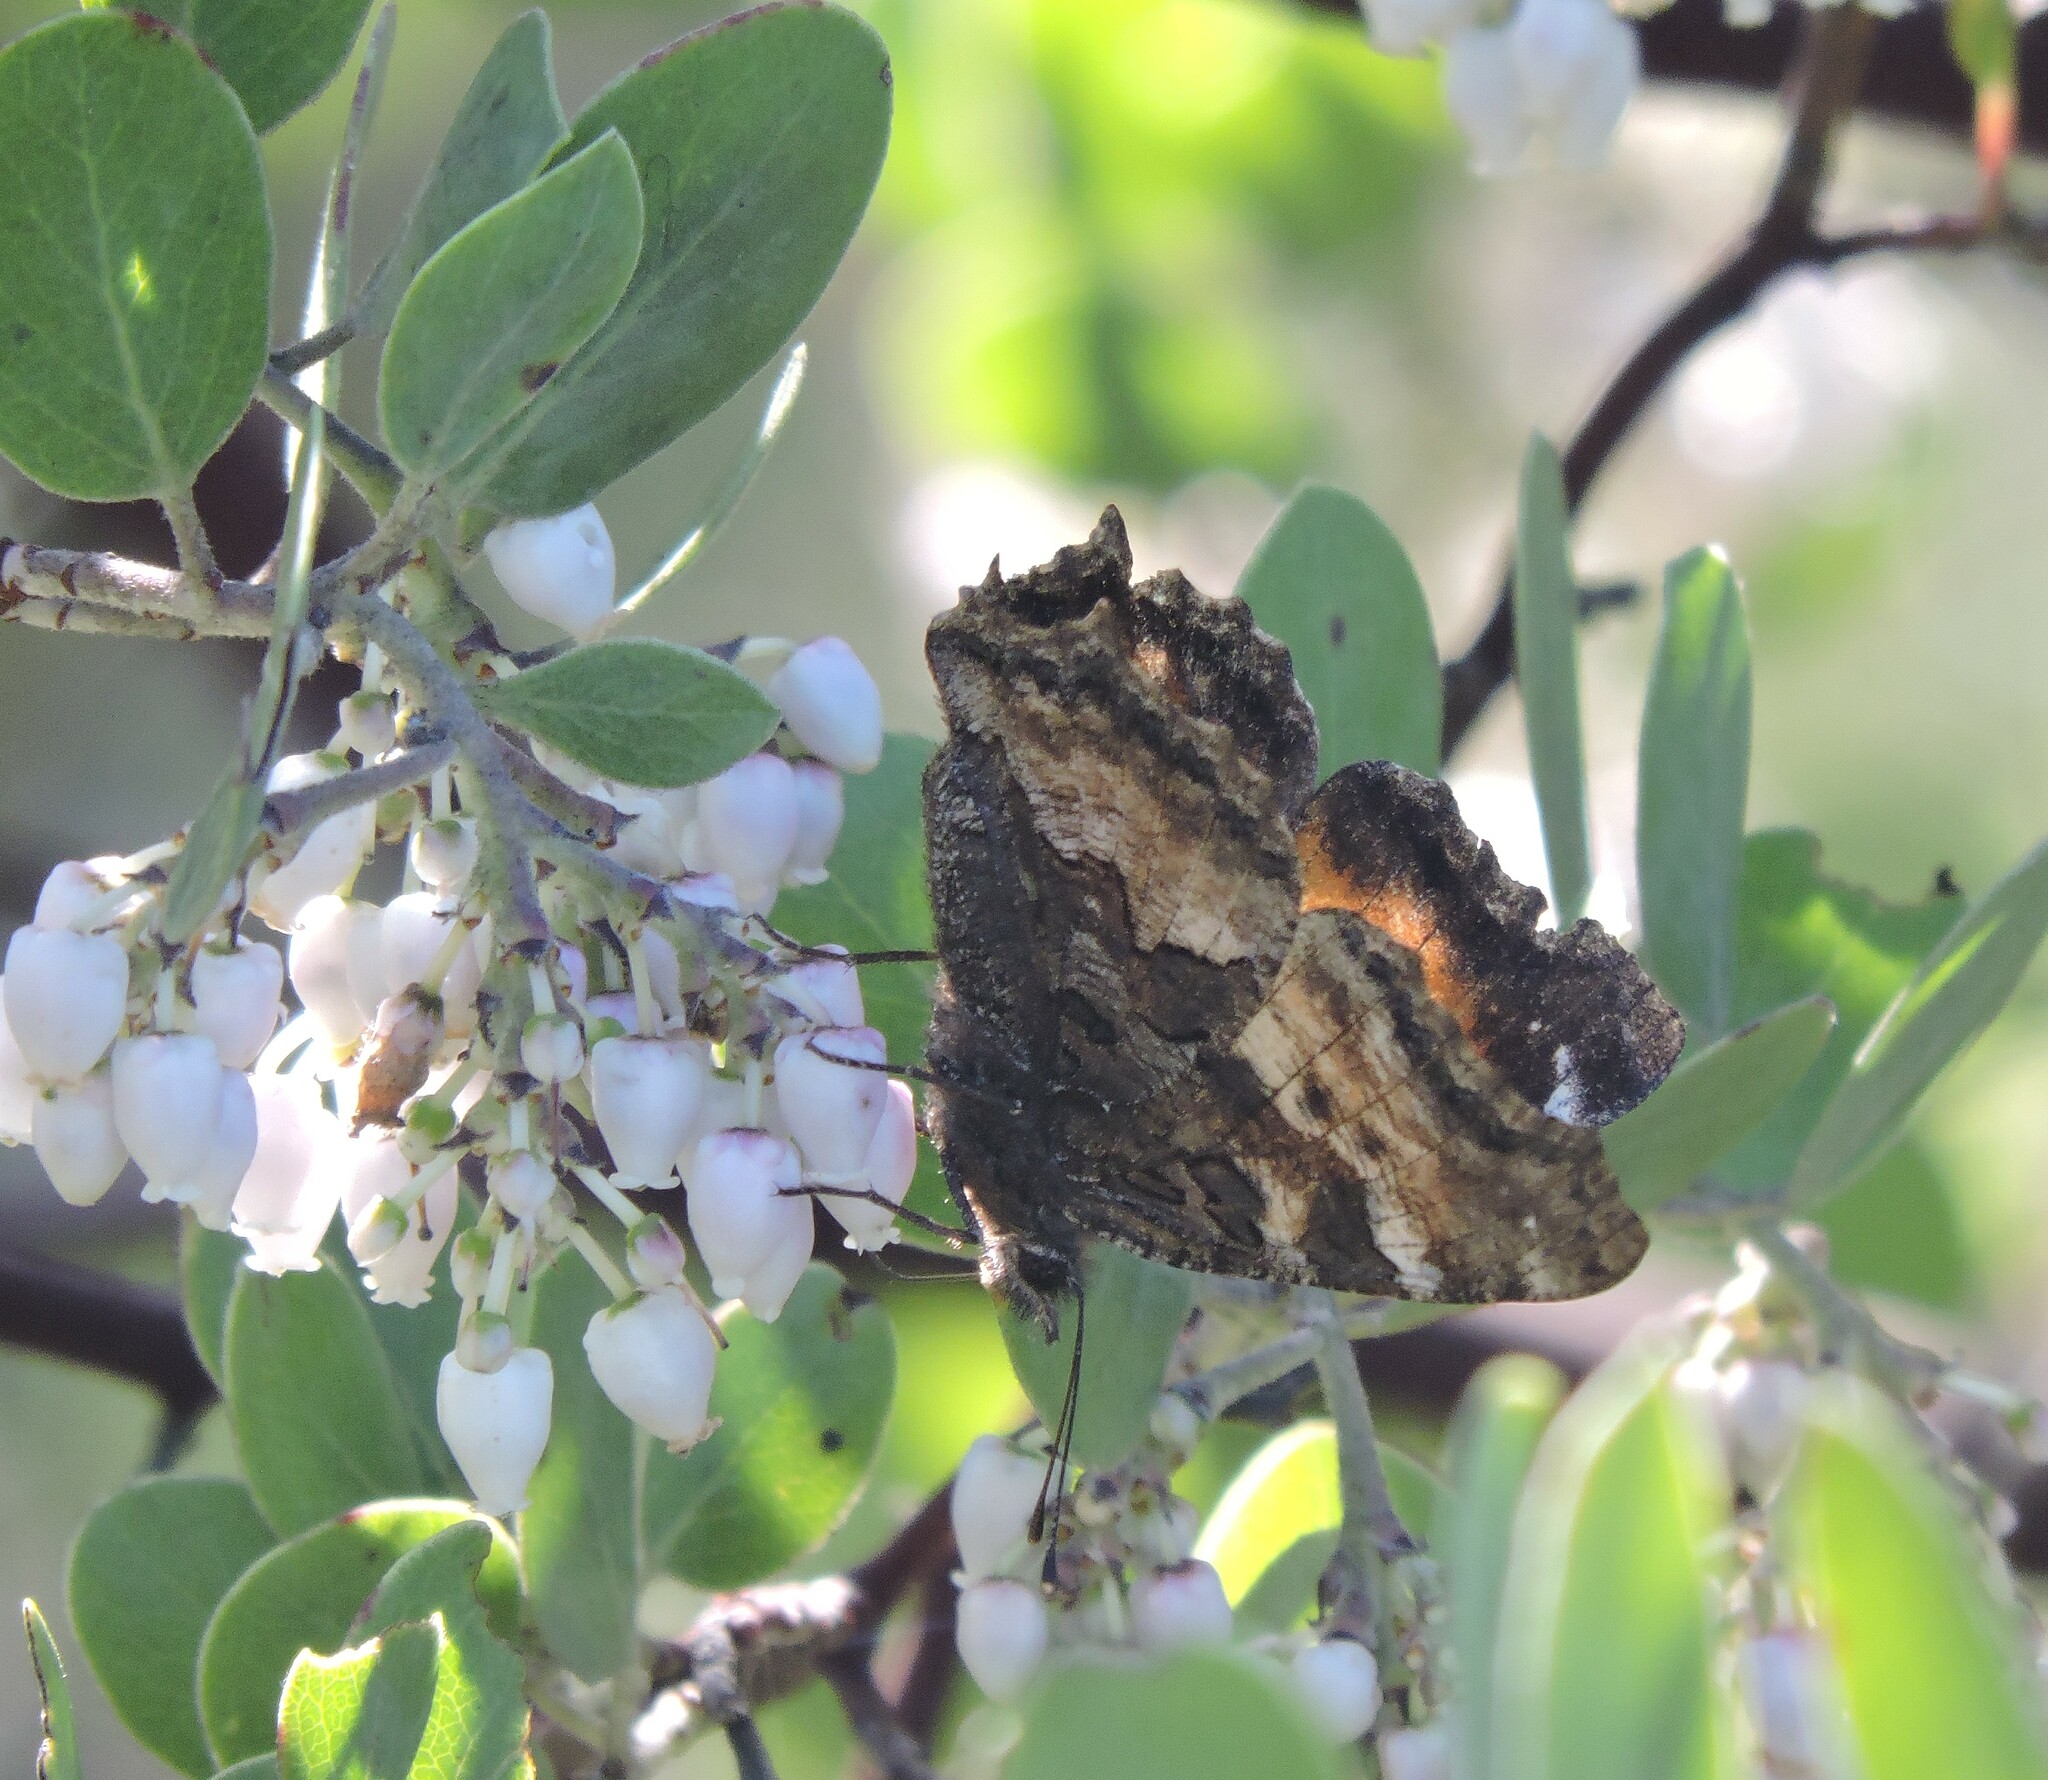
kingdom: Animalia
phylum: Arthropoda
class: Insecta
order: Lepidoptera
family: Nymphalidae
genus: Nymphalis
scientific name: Nymphalis californica
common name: California tortoiseshell
